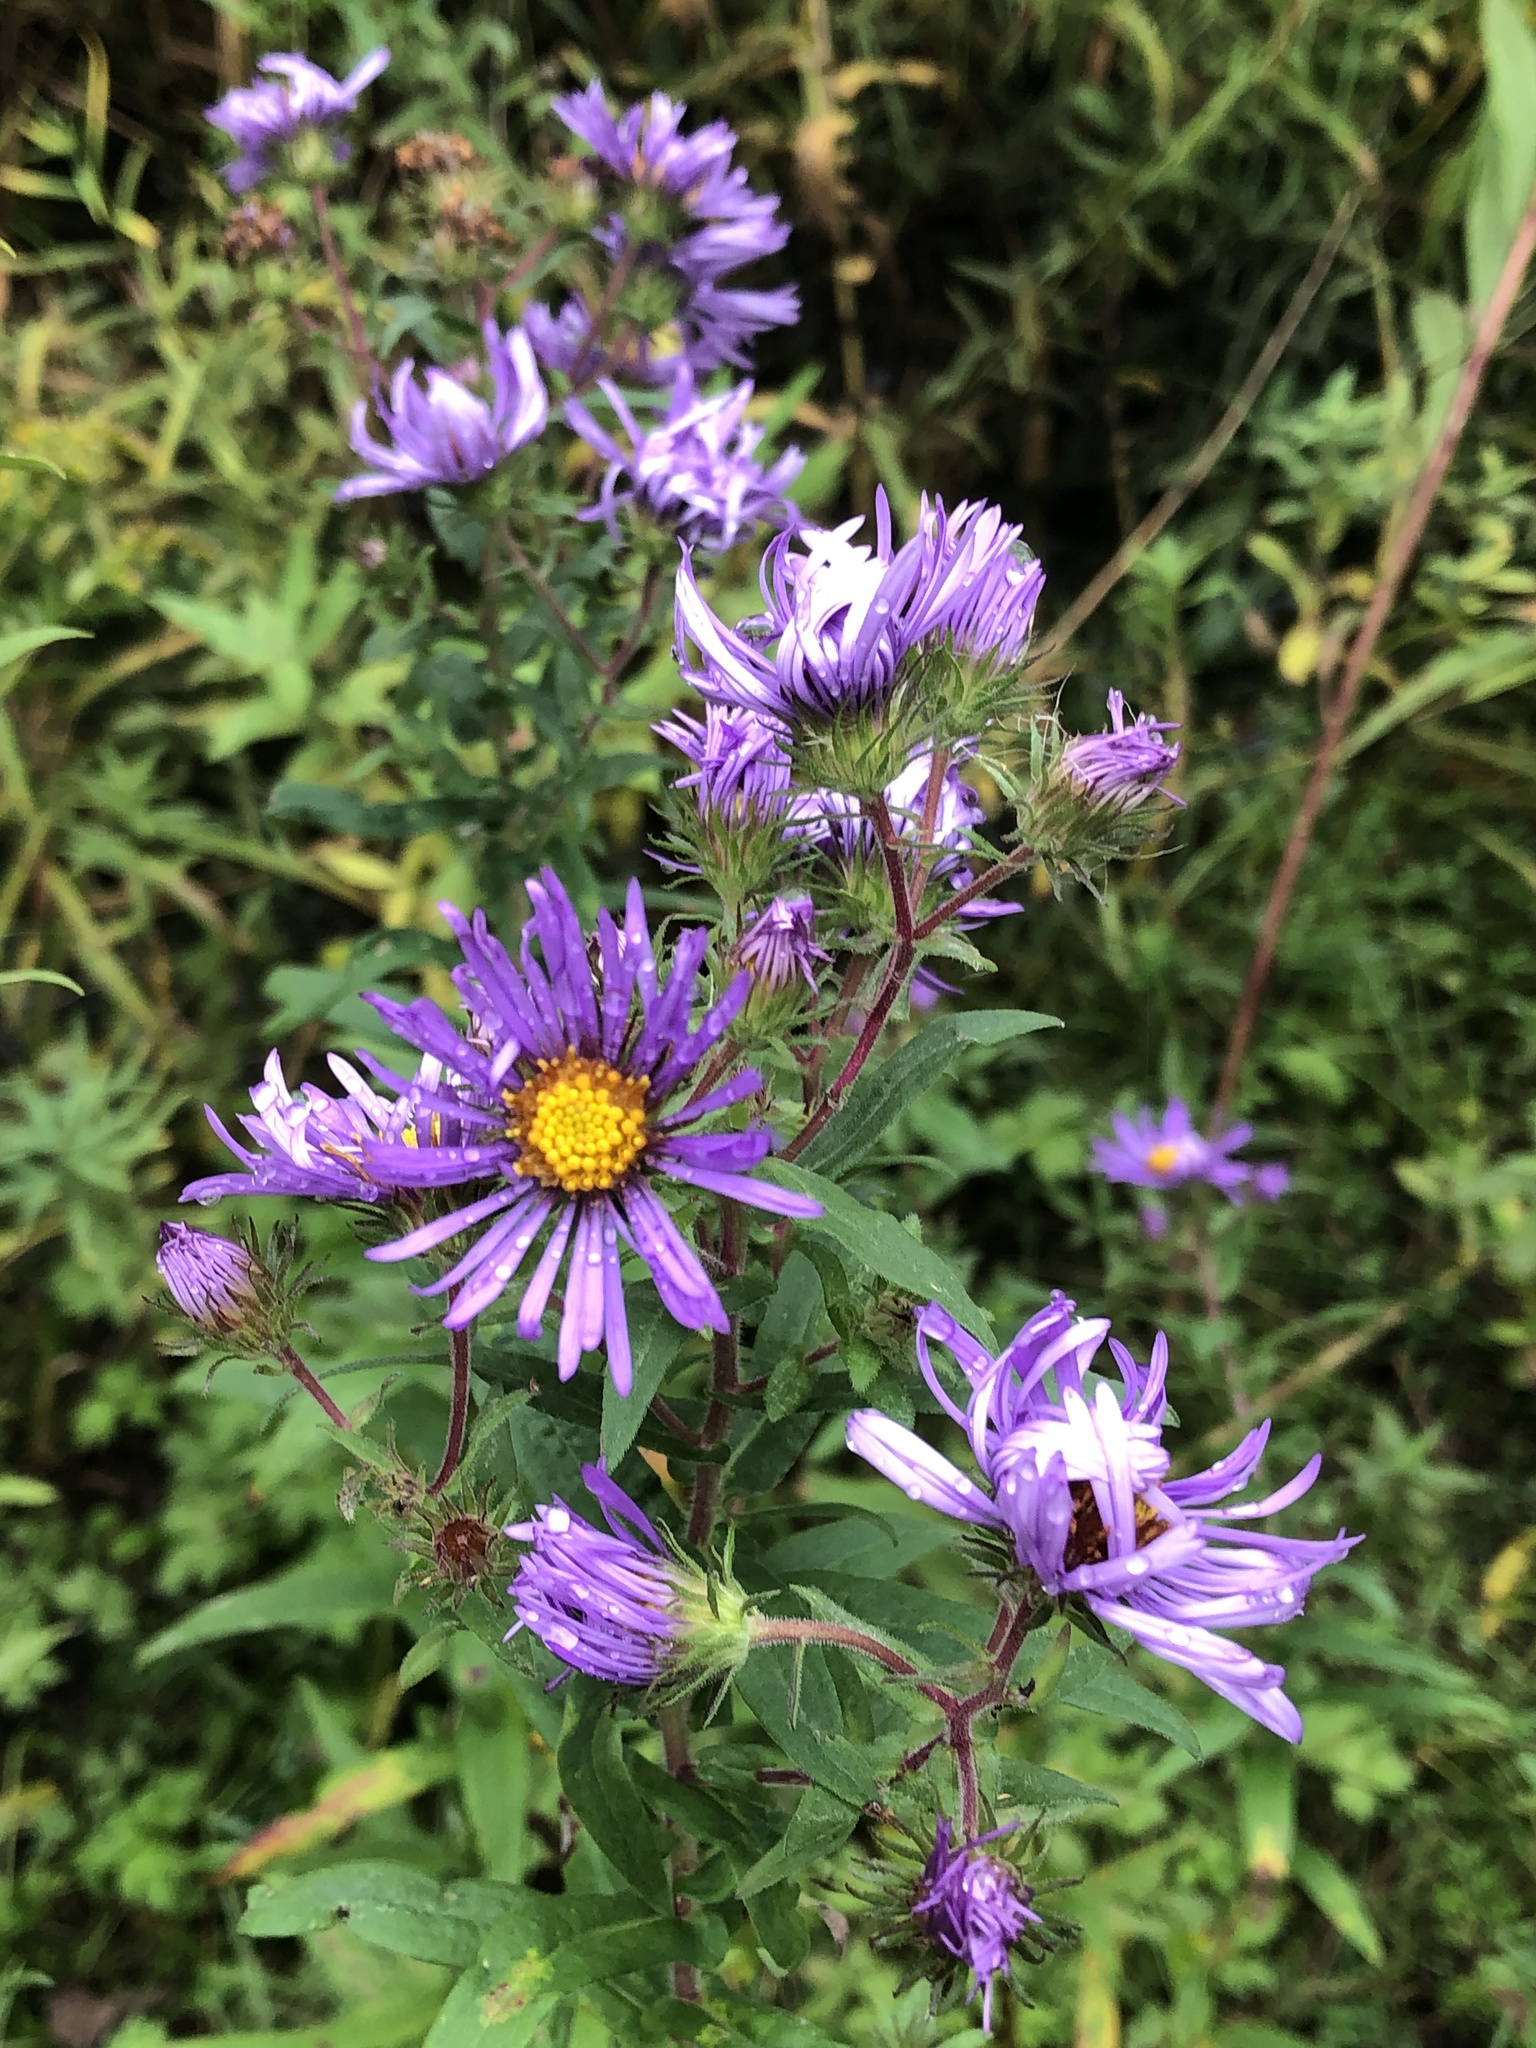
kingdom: Plantae
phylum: Tracheophyta
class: Magnoliopsida
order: Asterales
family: Asteraceae
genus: Symphyotrichum
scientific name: Symphyotrichum novae-angliae
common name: Michaelmas daisy
